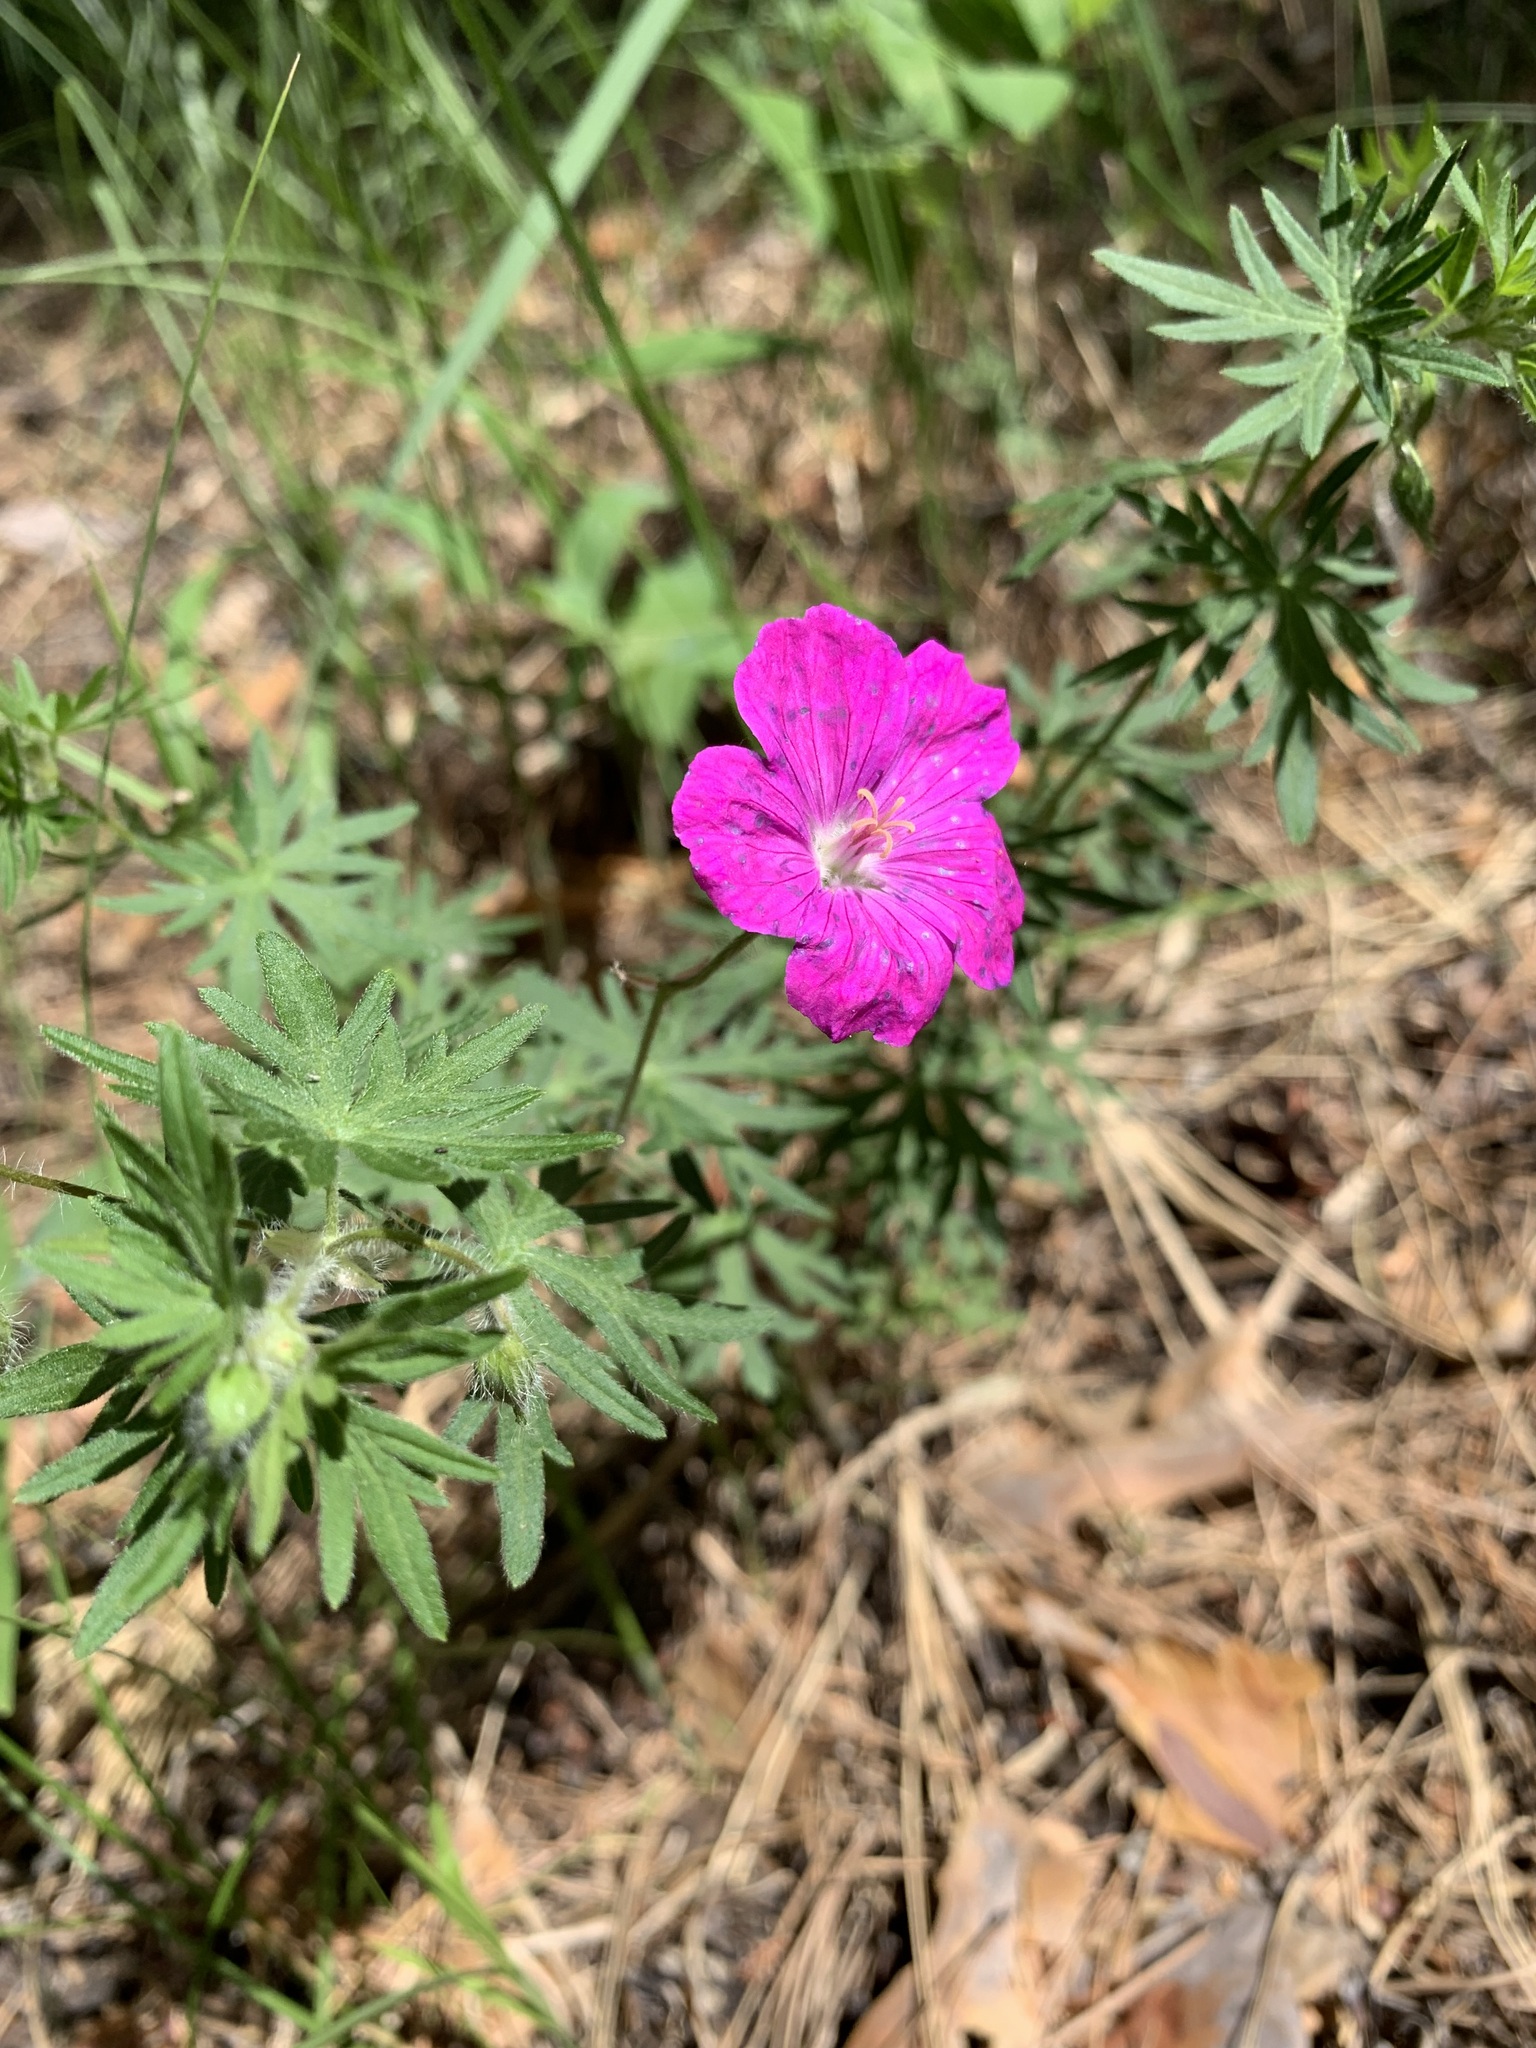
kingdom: Plantae
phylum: Tracheophyta
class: Magnoliopsida
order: Geraniales
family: Geraniaceae
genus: Geranium
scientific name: Geranium sanguineum
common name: Bloody crane's-bill
